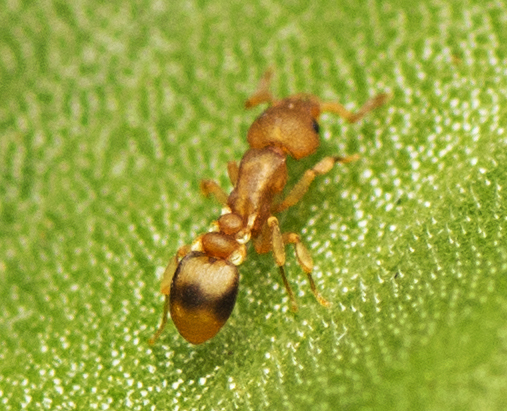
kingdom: Animalia
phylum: Arthropoda
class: Insecta
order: Hymenoptera
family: Formicidae
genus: Colobostruma
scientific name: Colobostruma
